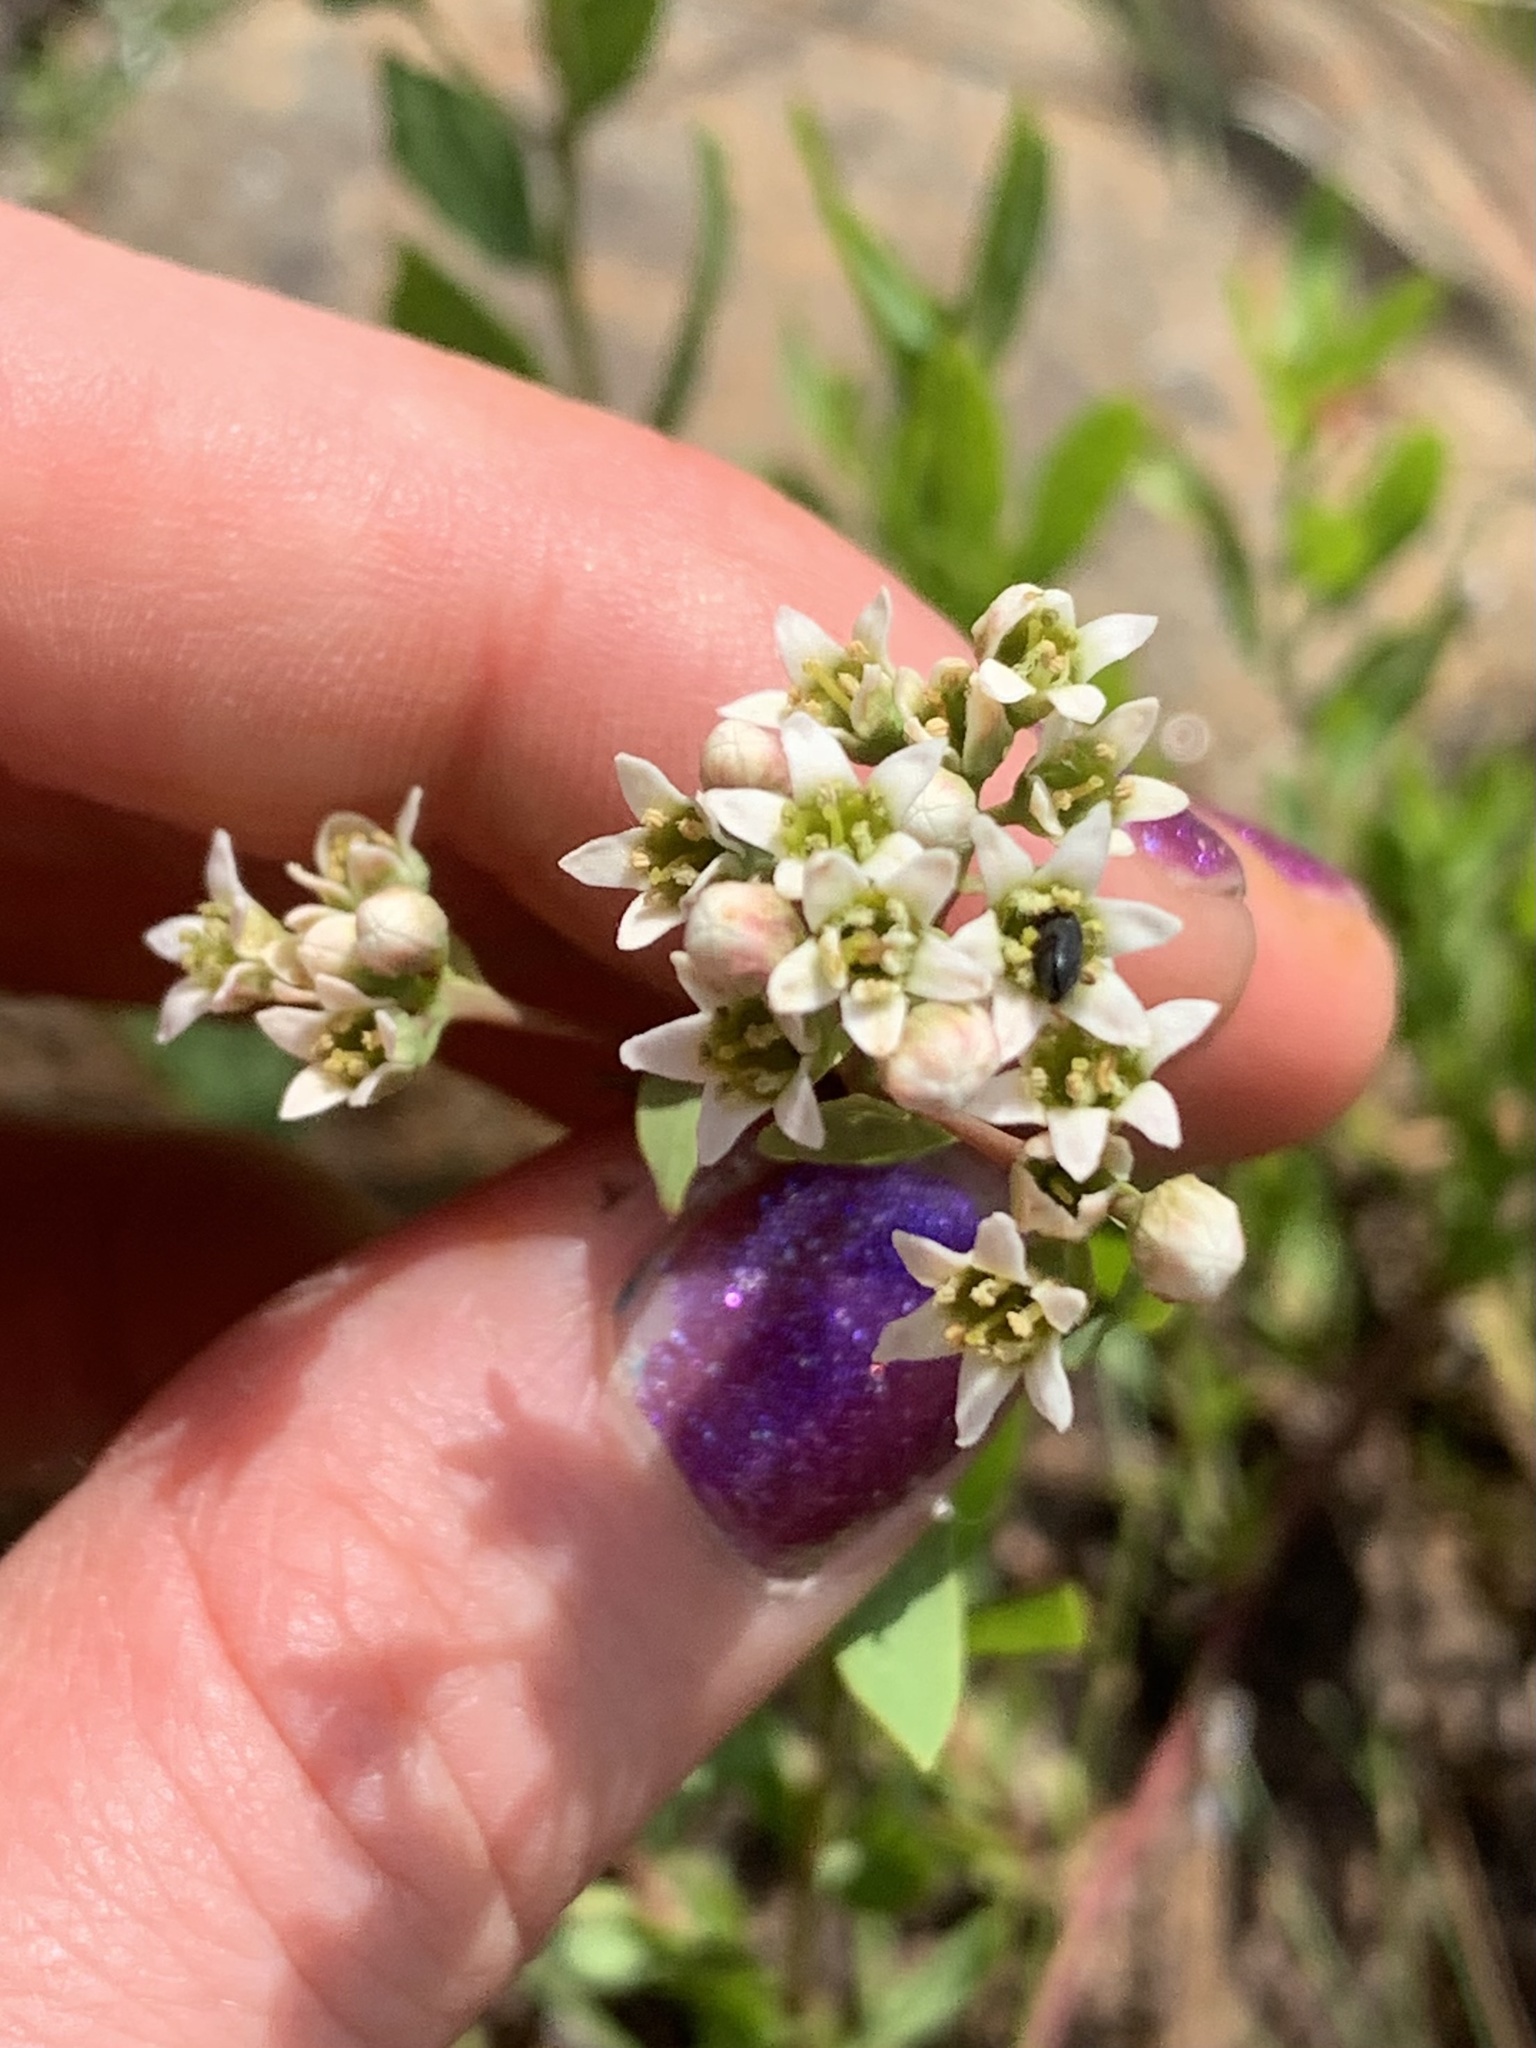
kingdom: Plantae
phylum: Tracheophyta
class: Magnoliopsida
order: Santalales
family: Comandraceae
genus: Comandra
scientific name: Comandra umbellata
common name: Bastard toadflax
